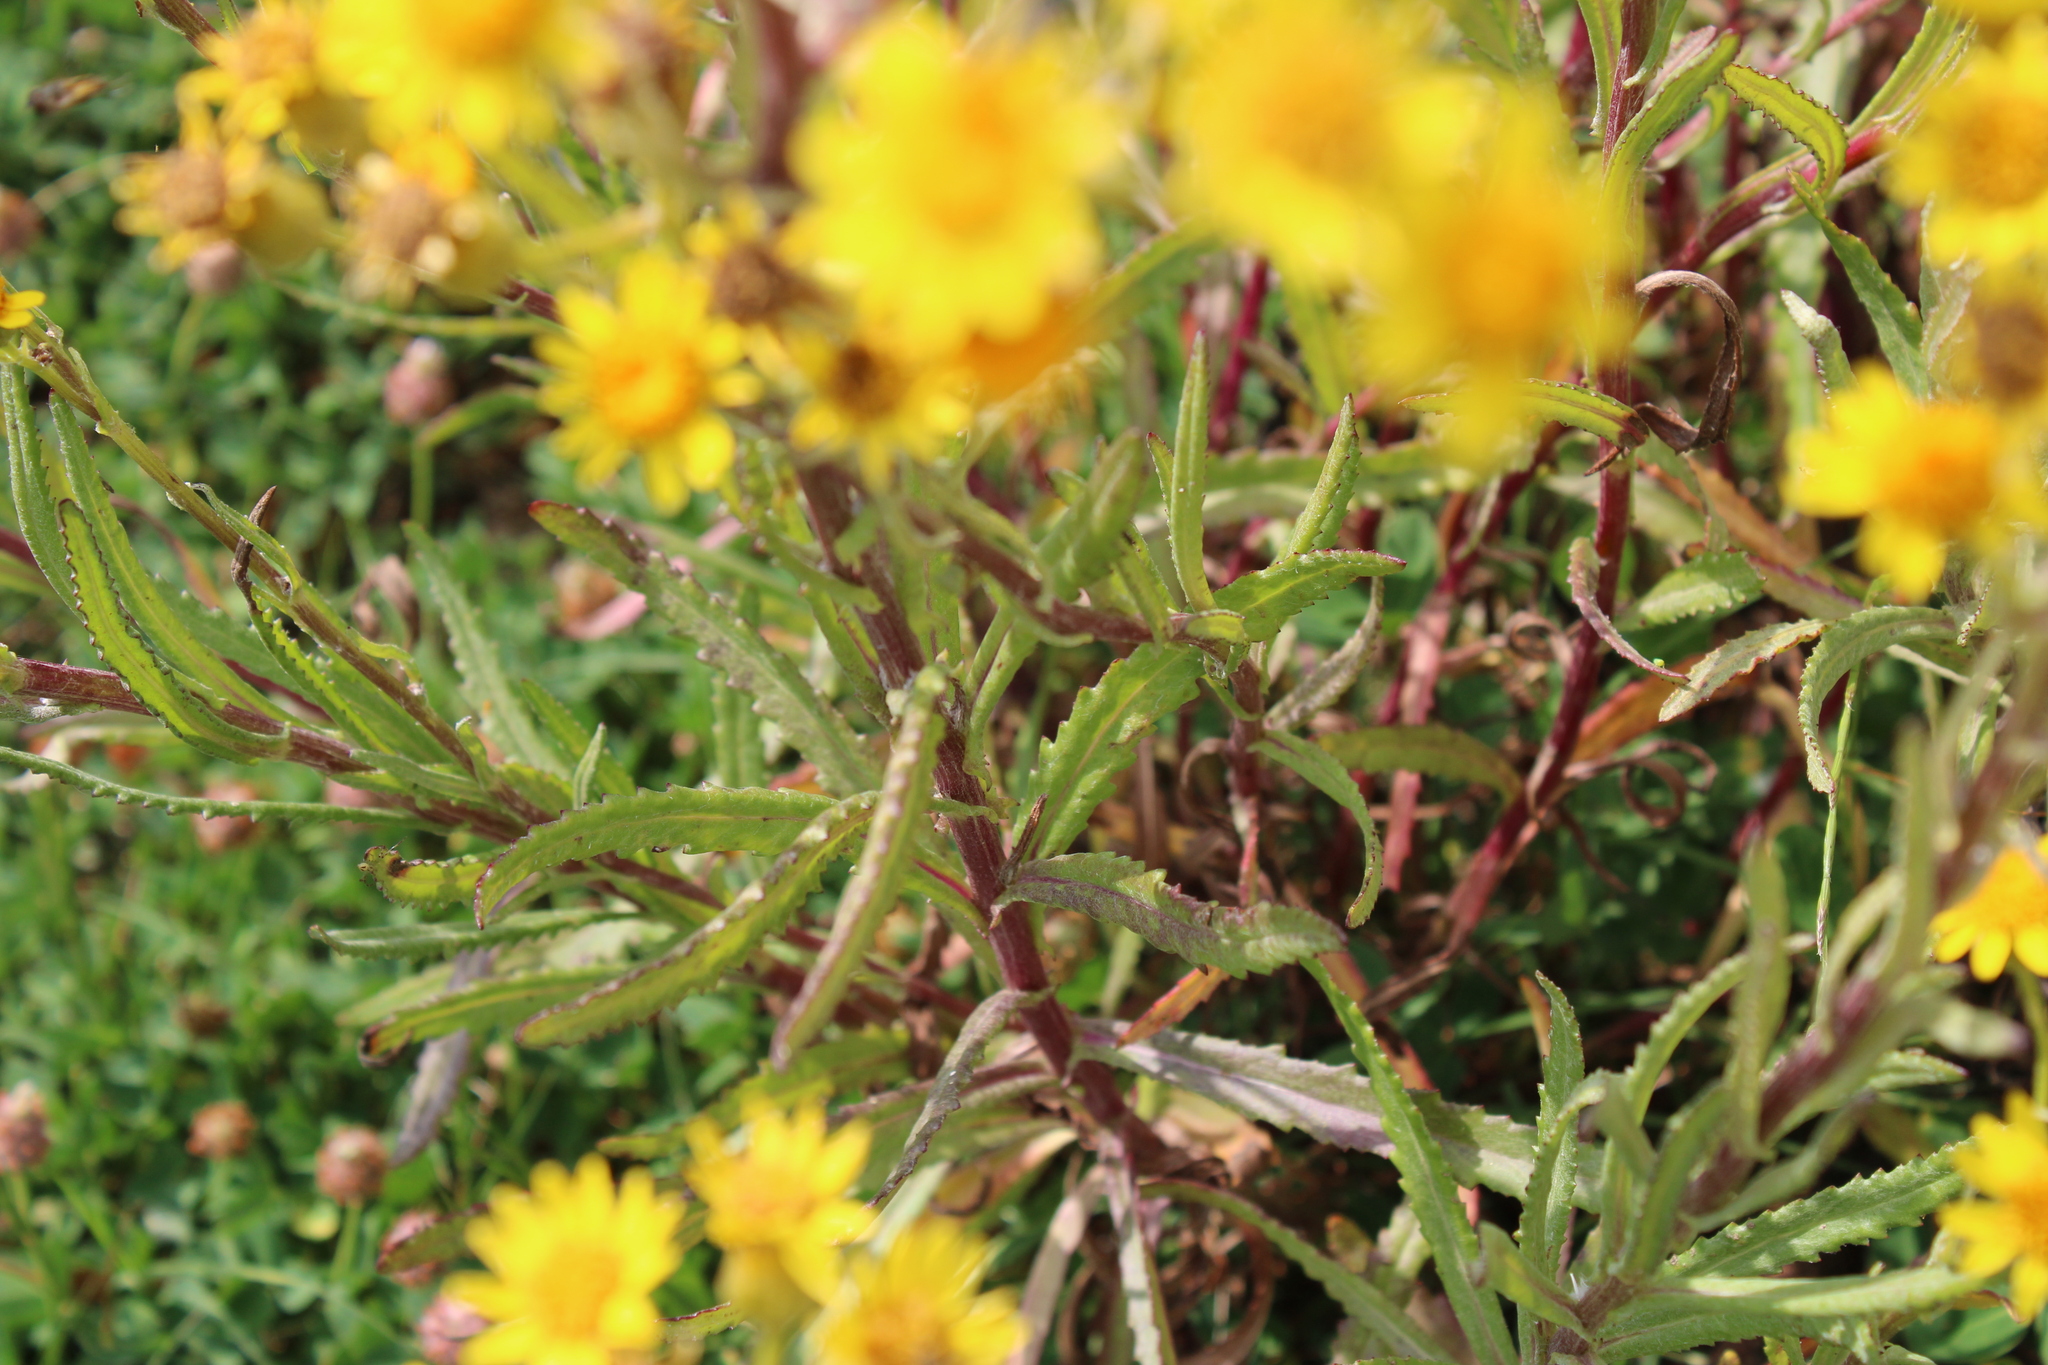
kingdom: Plantae
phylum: Tracheophyta
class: Magnoliopsida
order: Asterales
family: Asteraceae
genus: Senecio
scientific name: Senecio grisebachii
